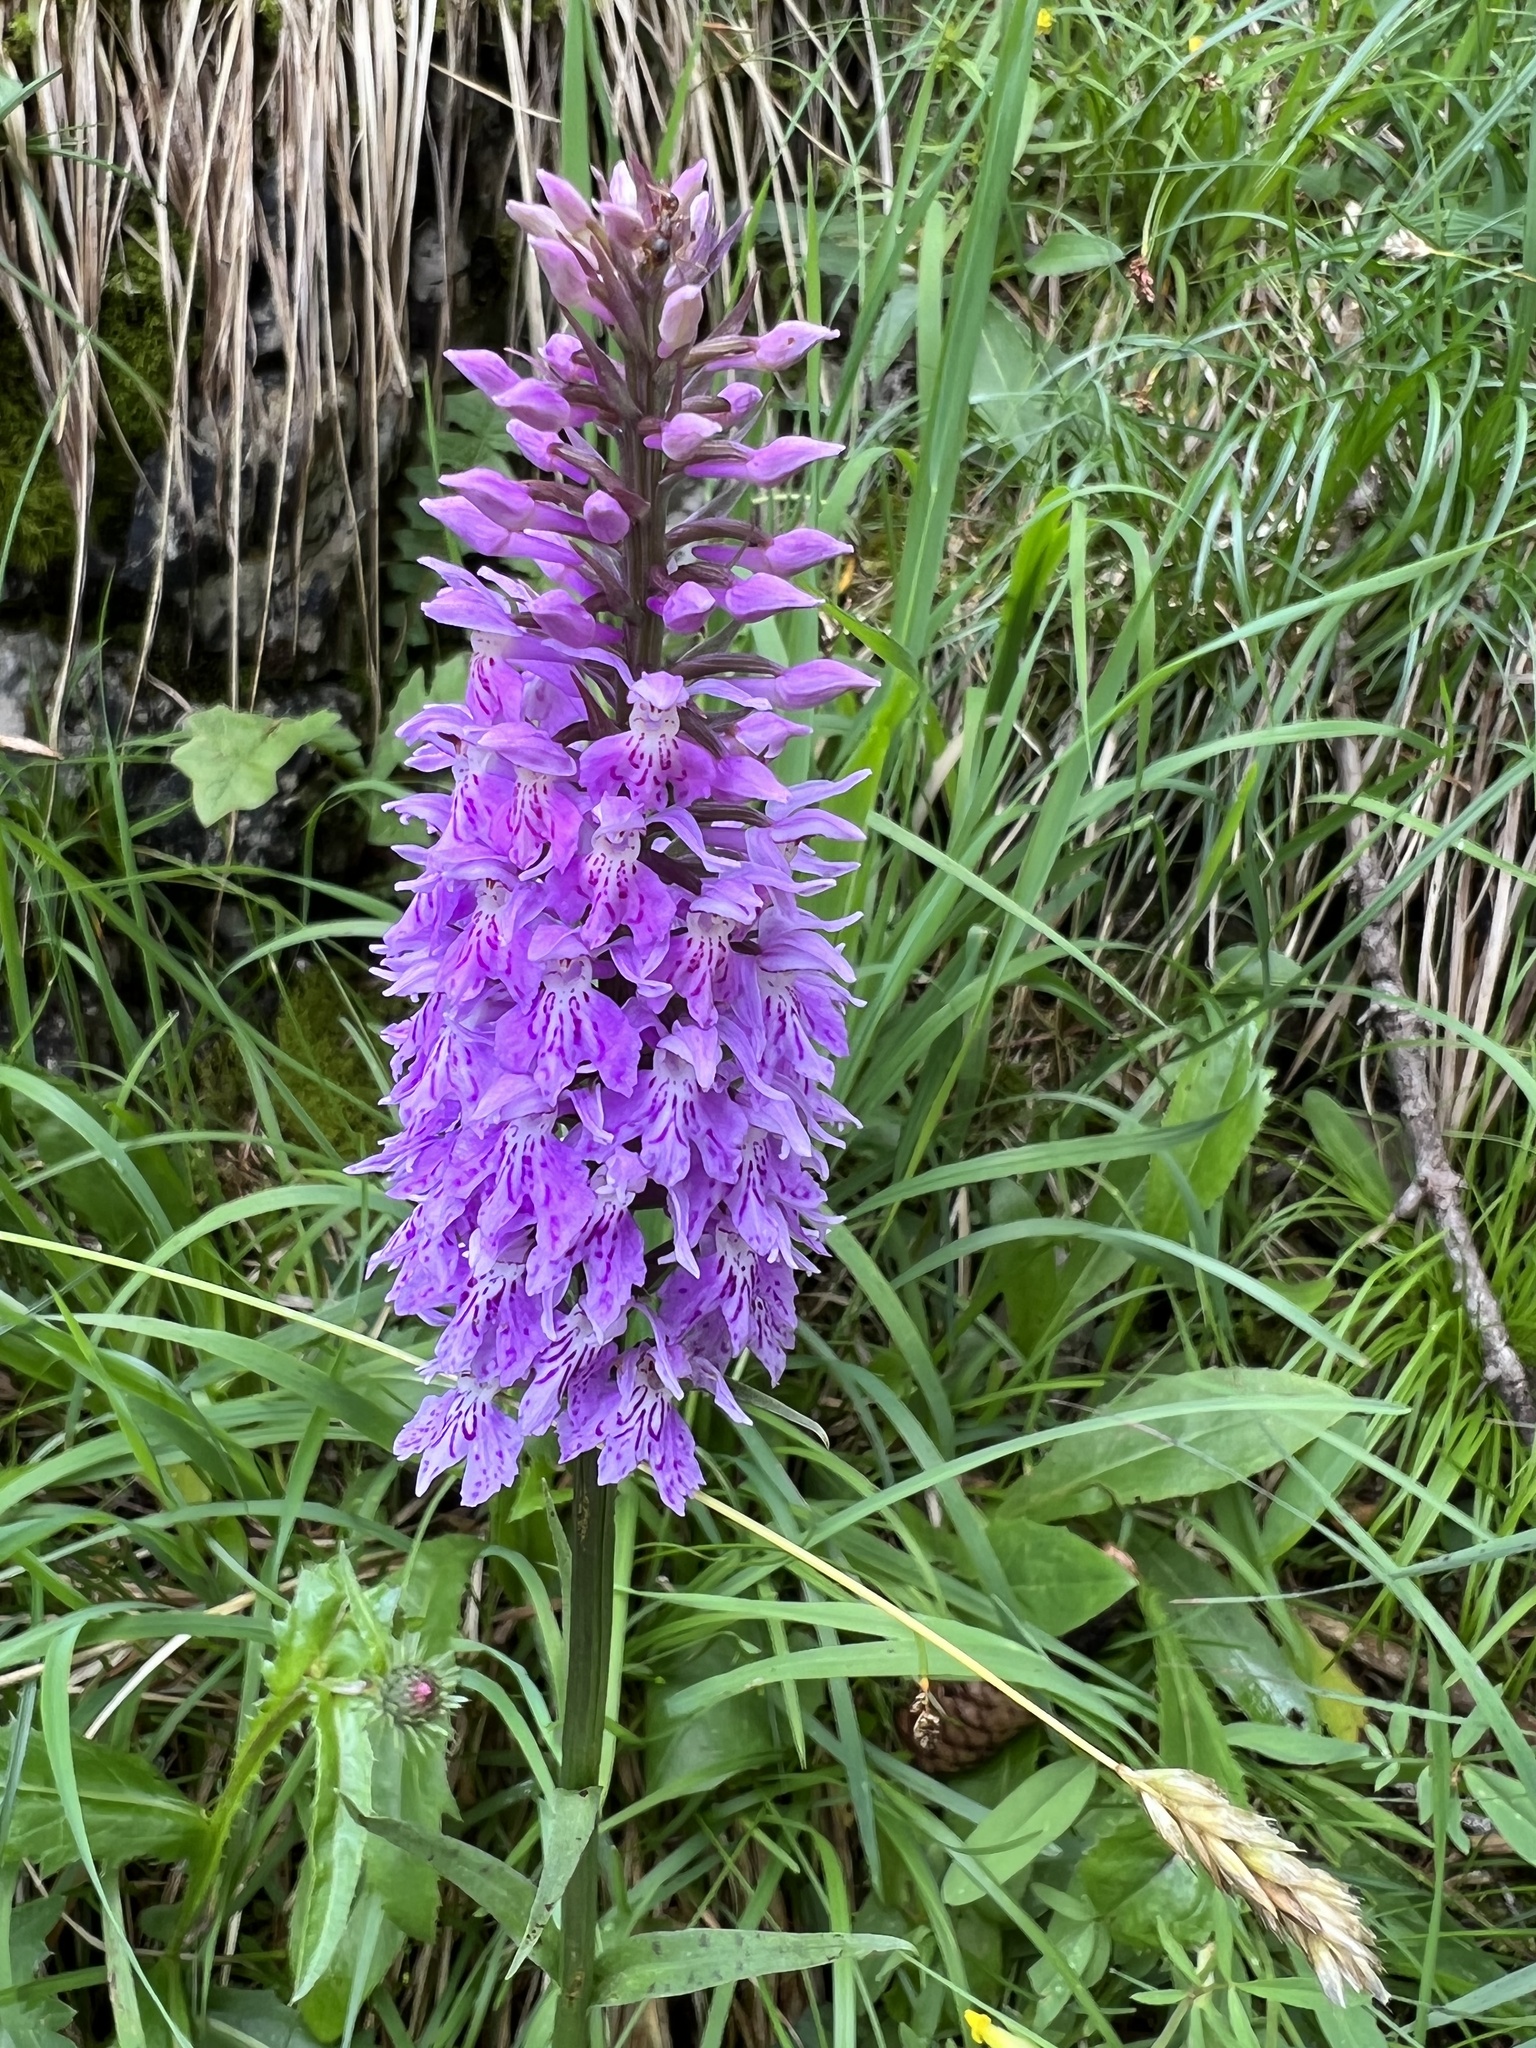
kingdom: Plantae
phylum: Tracheophyta
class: Liliopsida
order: Asparagales
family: Orchidaceae
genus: Dactylorhiza
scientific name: Dactylorhiza maculata
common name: Heath spotted-orchid
